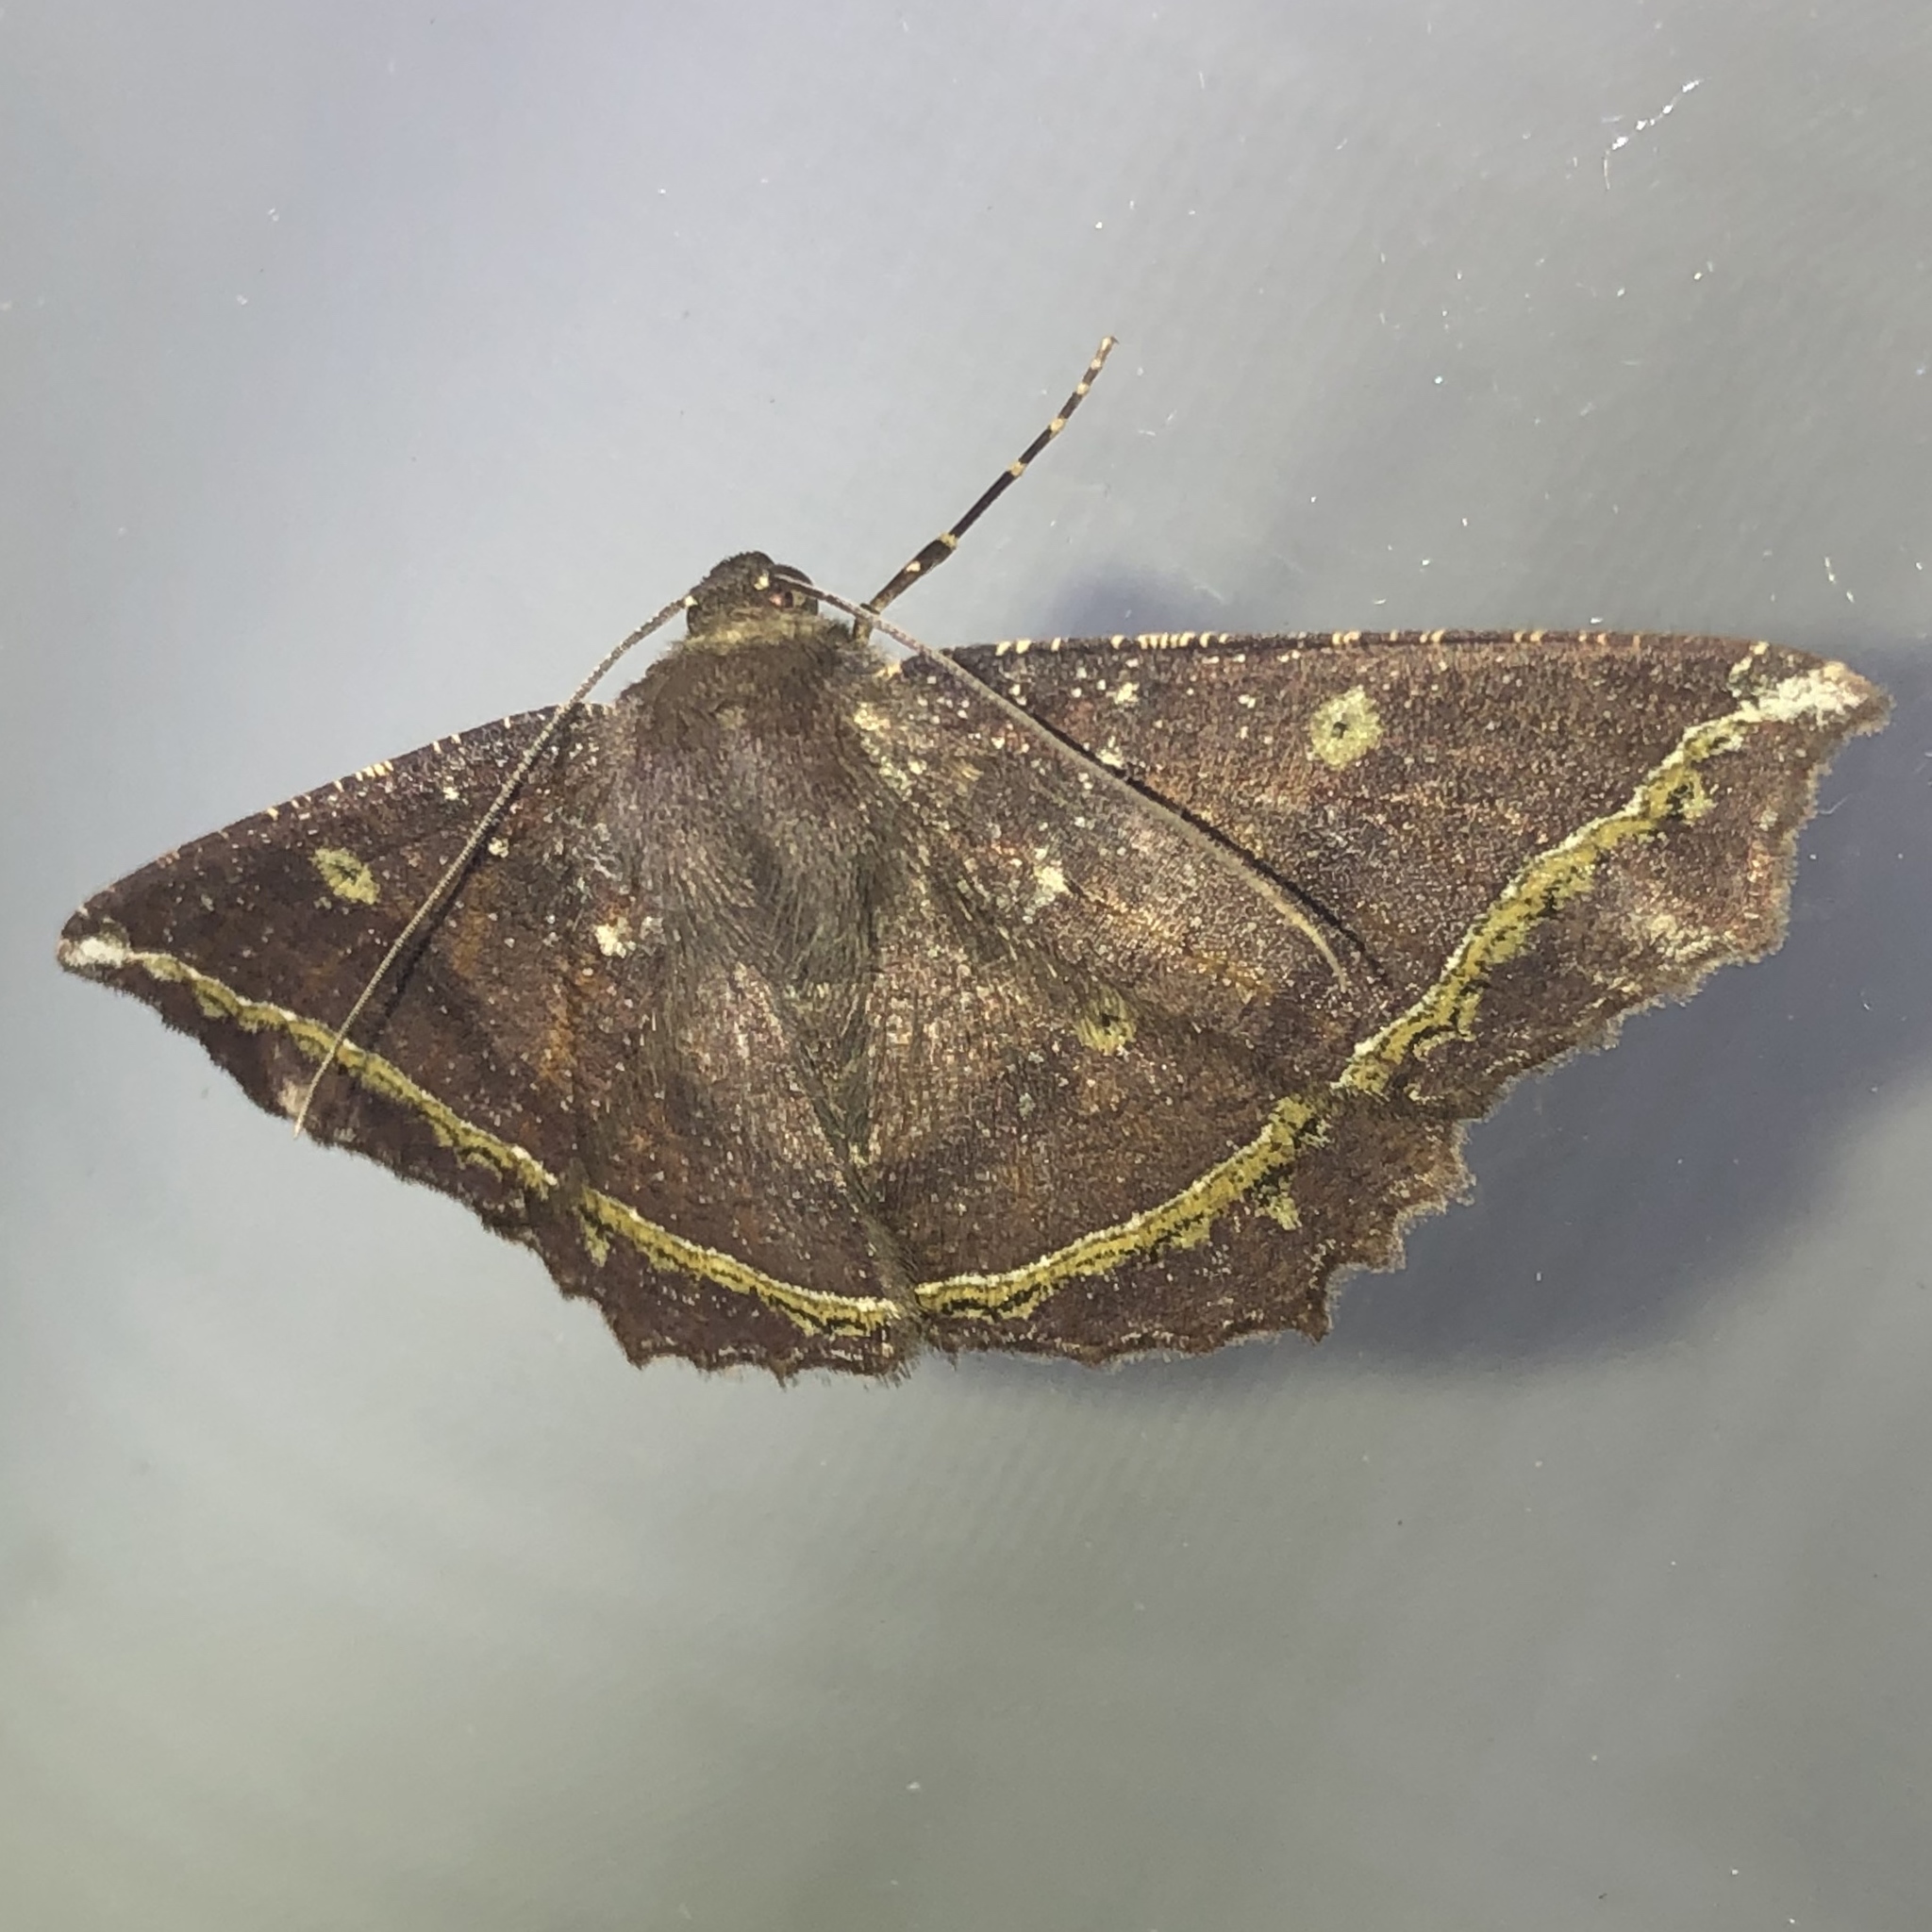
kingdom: Animalia
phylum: Arthropoda
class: Insecta
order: Lepidoptera
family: Geometridae
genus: Synnomos
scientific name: Synnomos firmamentaria
